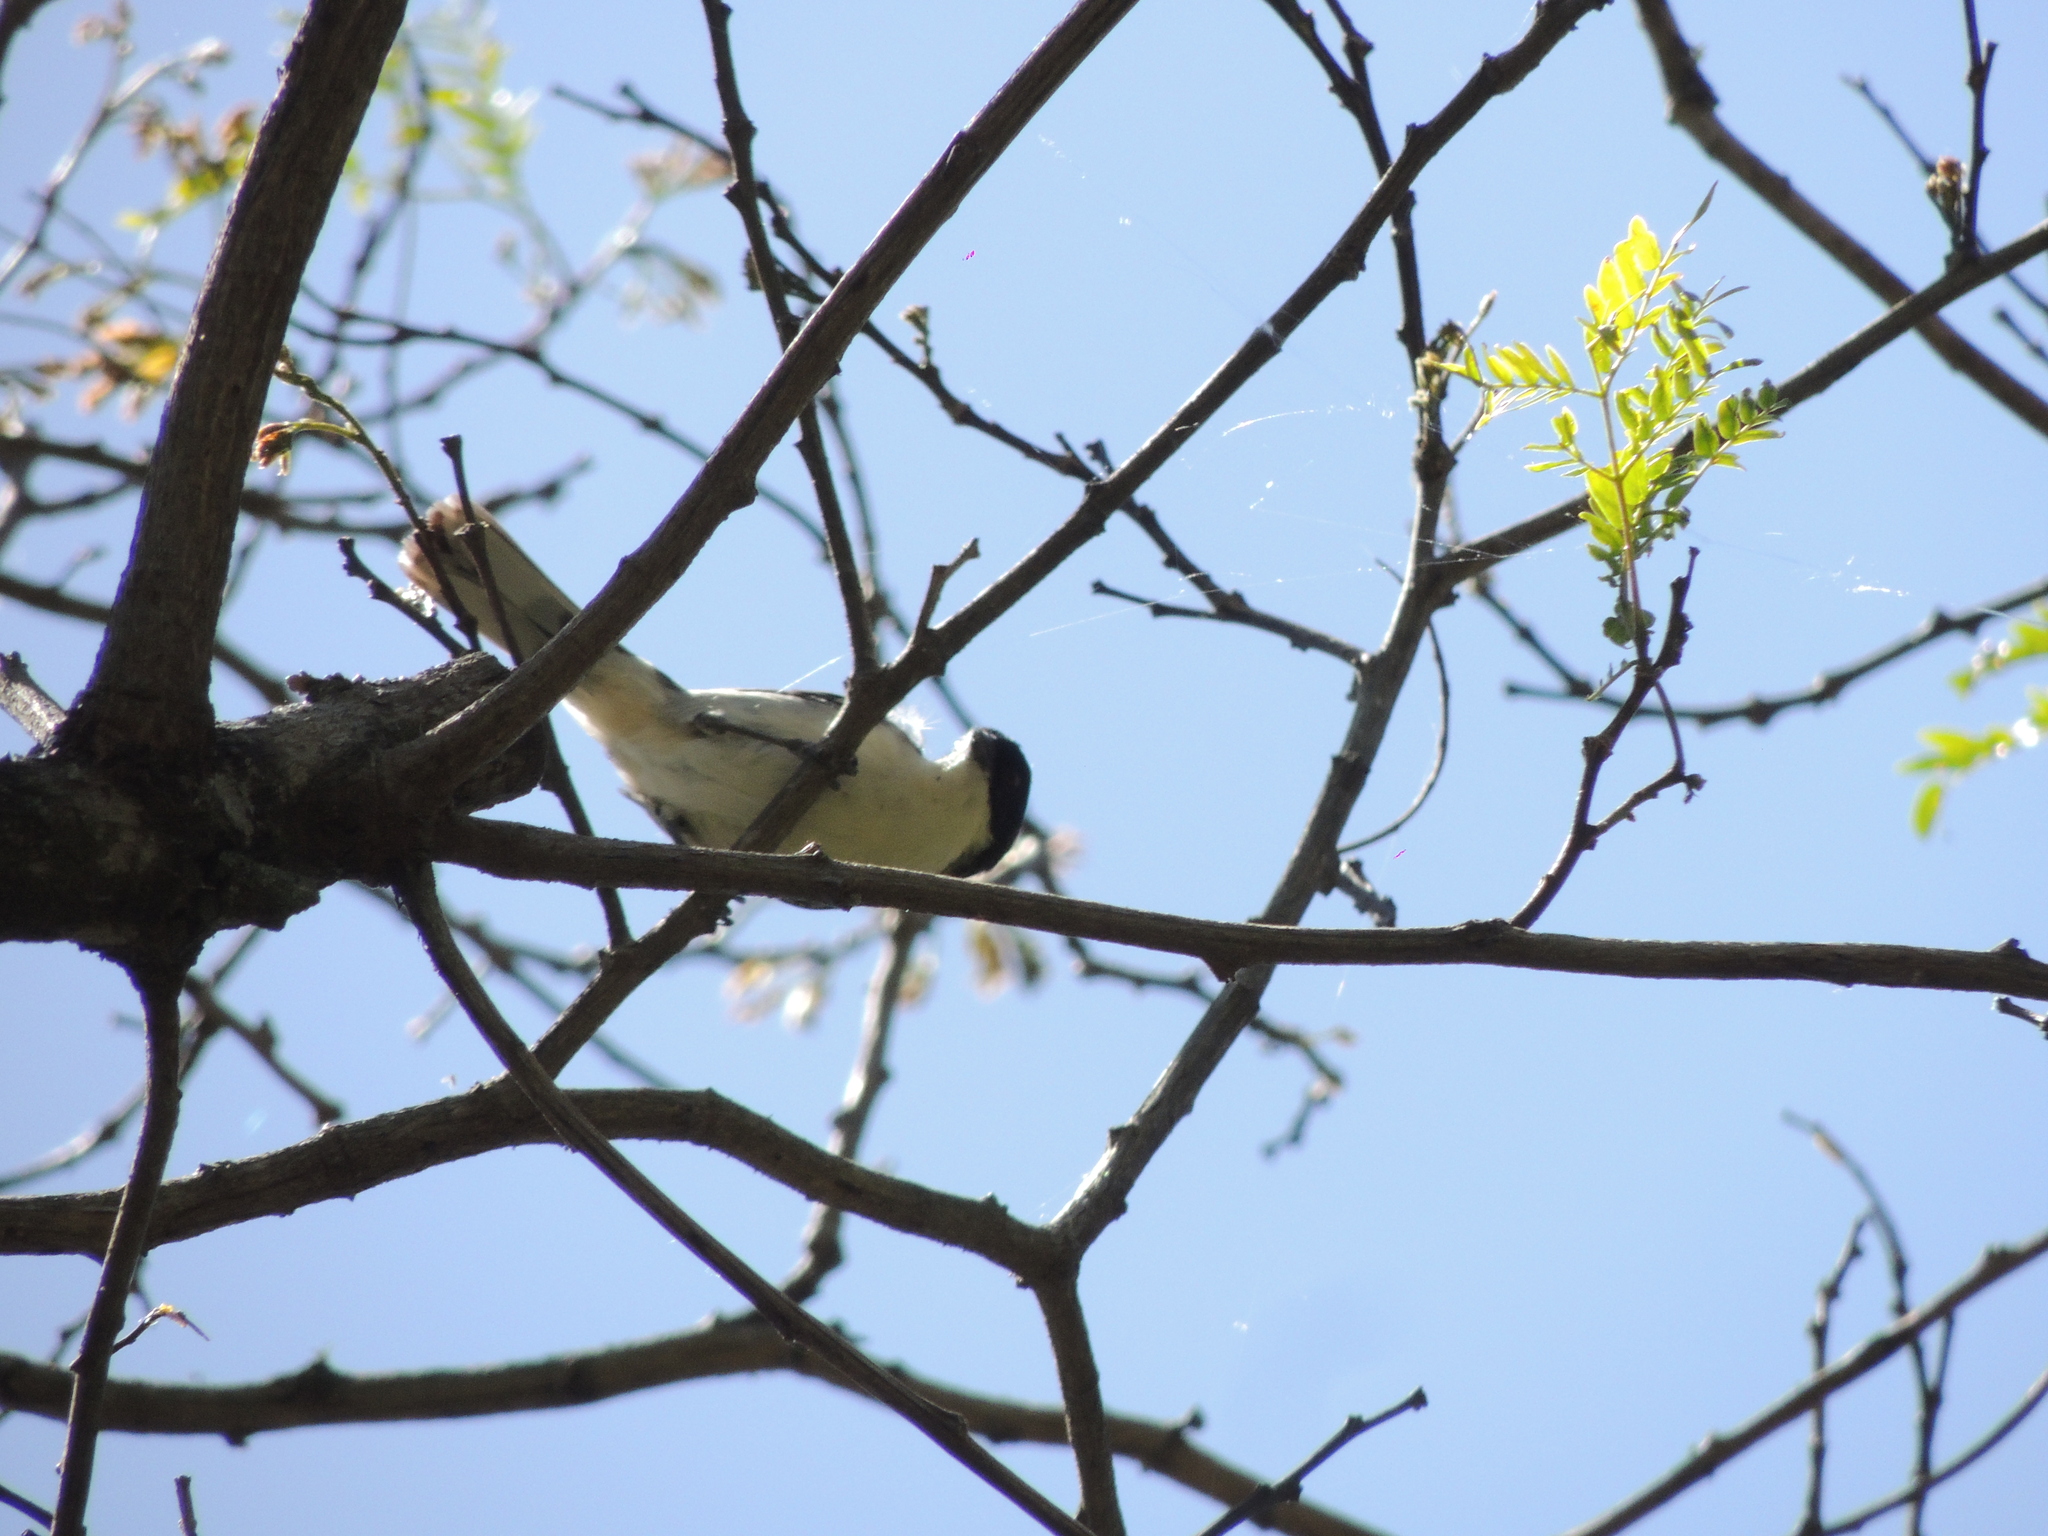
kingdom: Animalia
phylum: Chordata
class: Aves
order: Passeriformes
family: Thraupidae
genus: Microspingus
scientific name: Microspingus melanoleucus
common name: Black-capped warbling-finch
